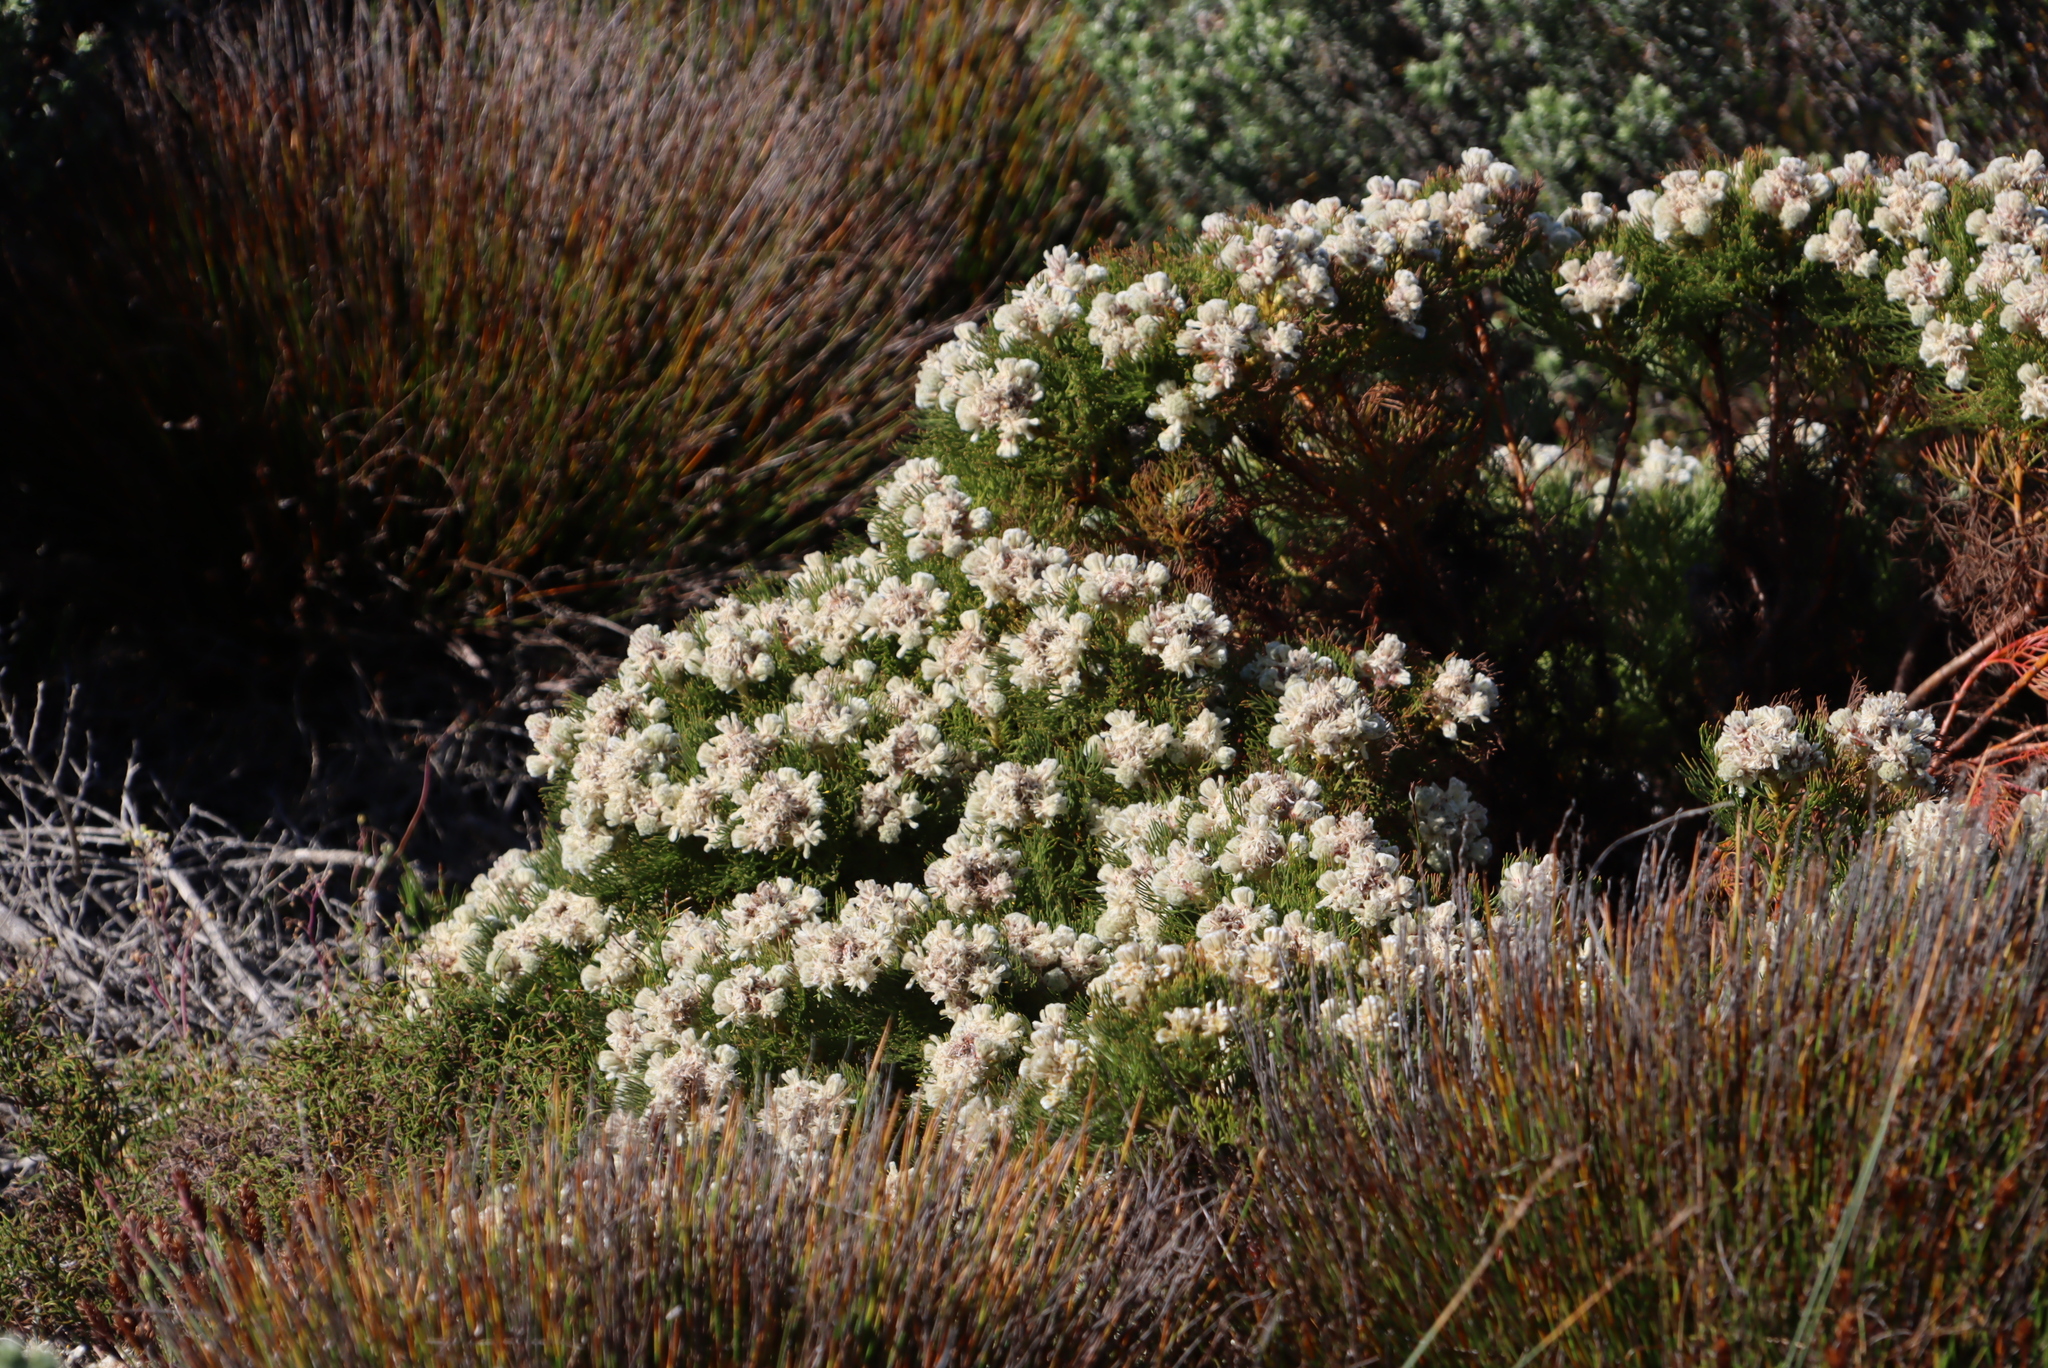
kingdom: Plantae
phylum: Tracheophyta
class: Magnoliopsida
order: Proteales
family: Proteaceae
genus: Serruria
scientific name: Serruria glomerata
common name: Cluster spiderhead
